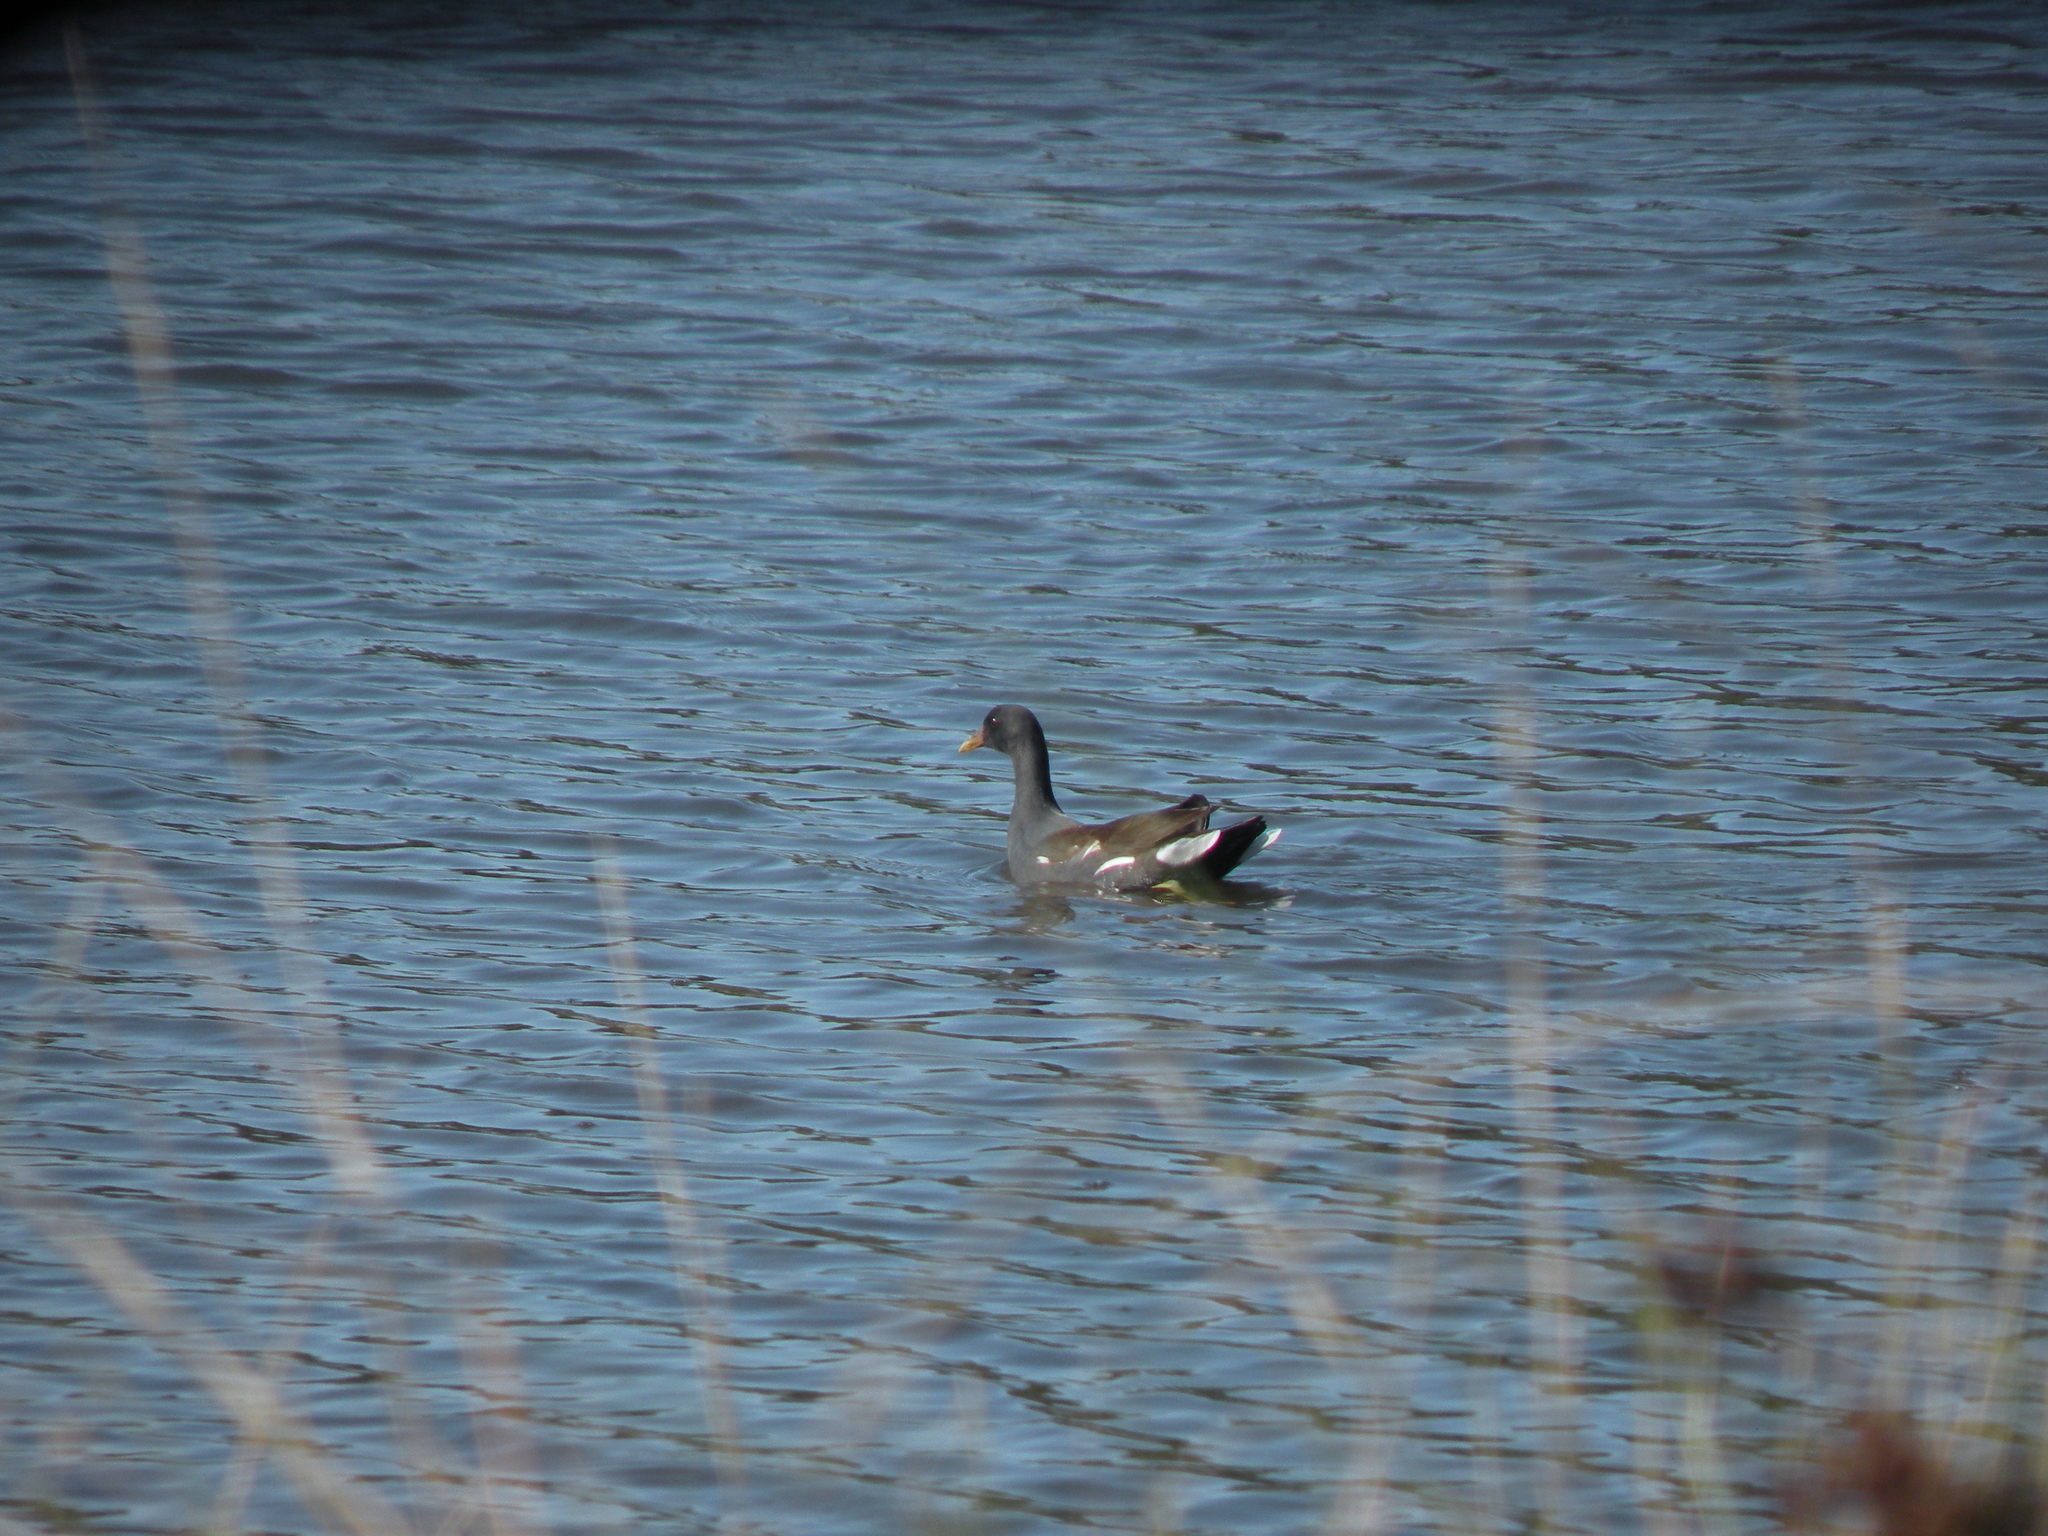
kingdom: Animalia
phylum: Chordata
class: Aves
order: Gruiformes
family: Rallidae
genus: Gallinula
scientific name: Gallinula chloropus
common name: Common moorhen
